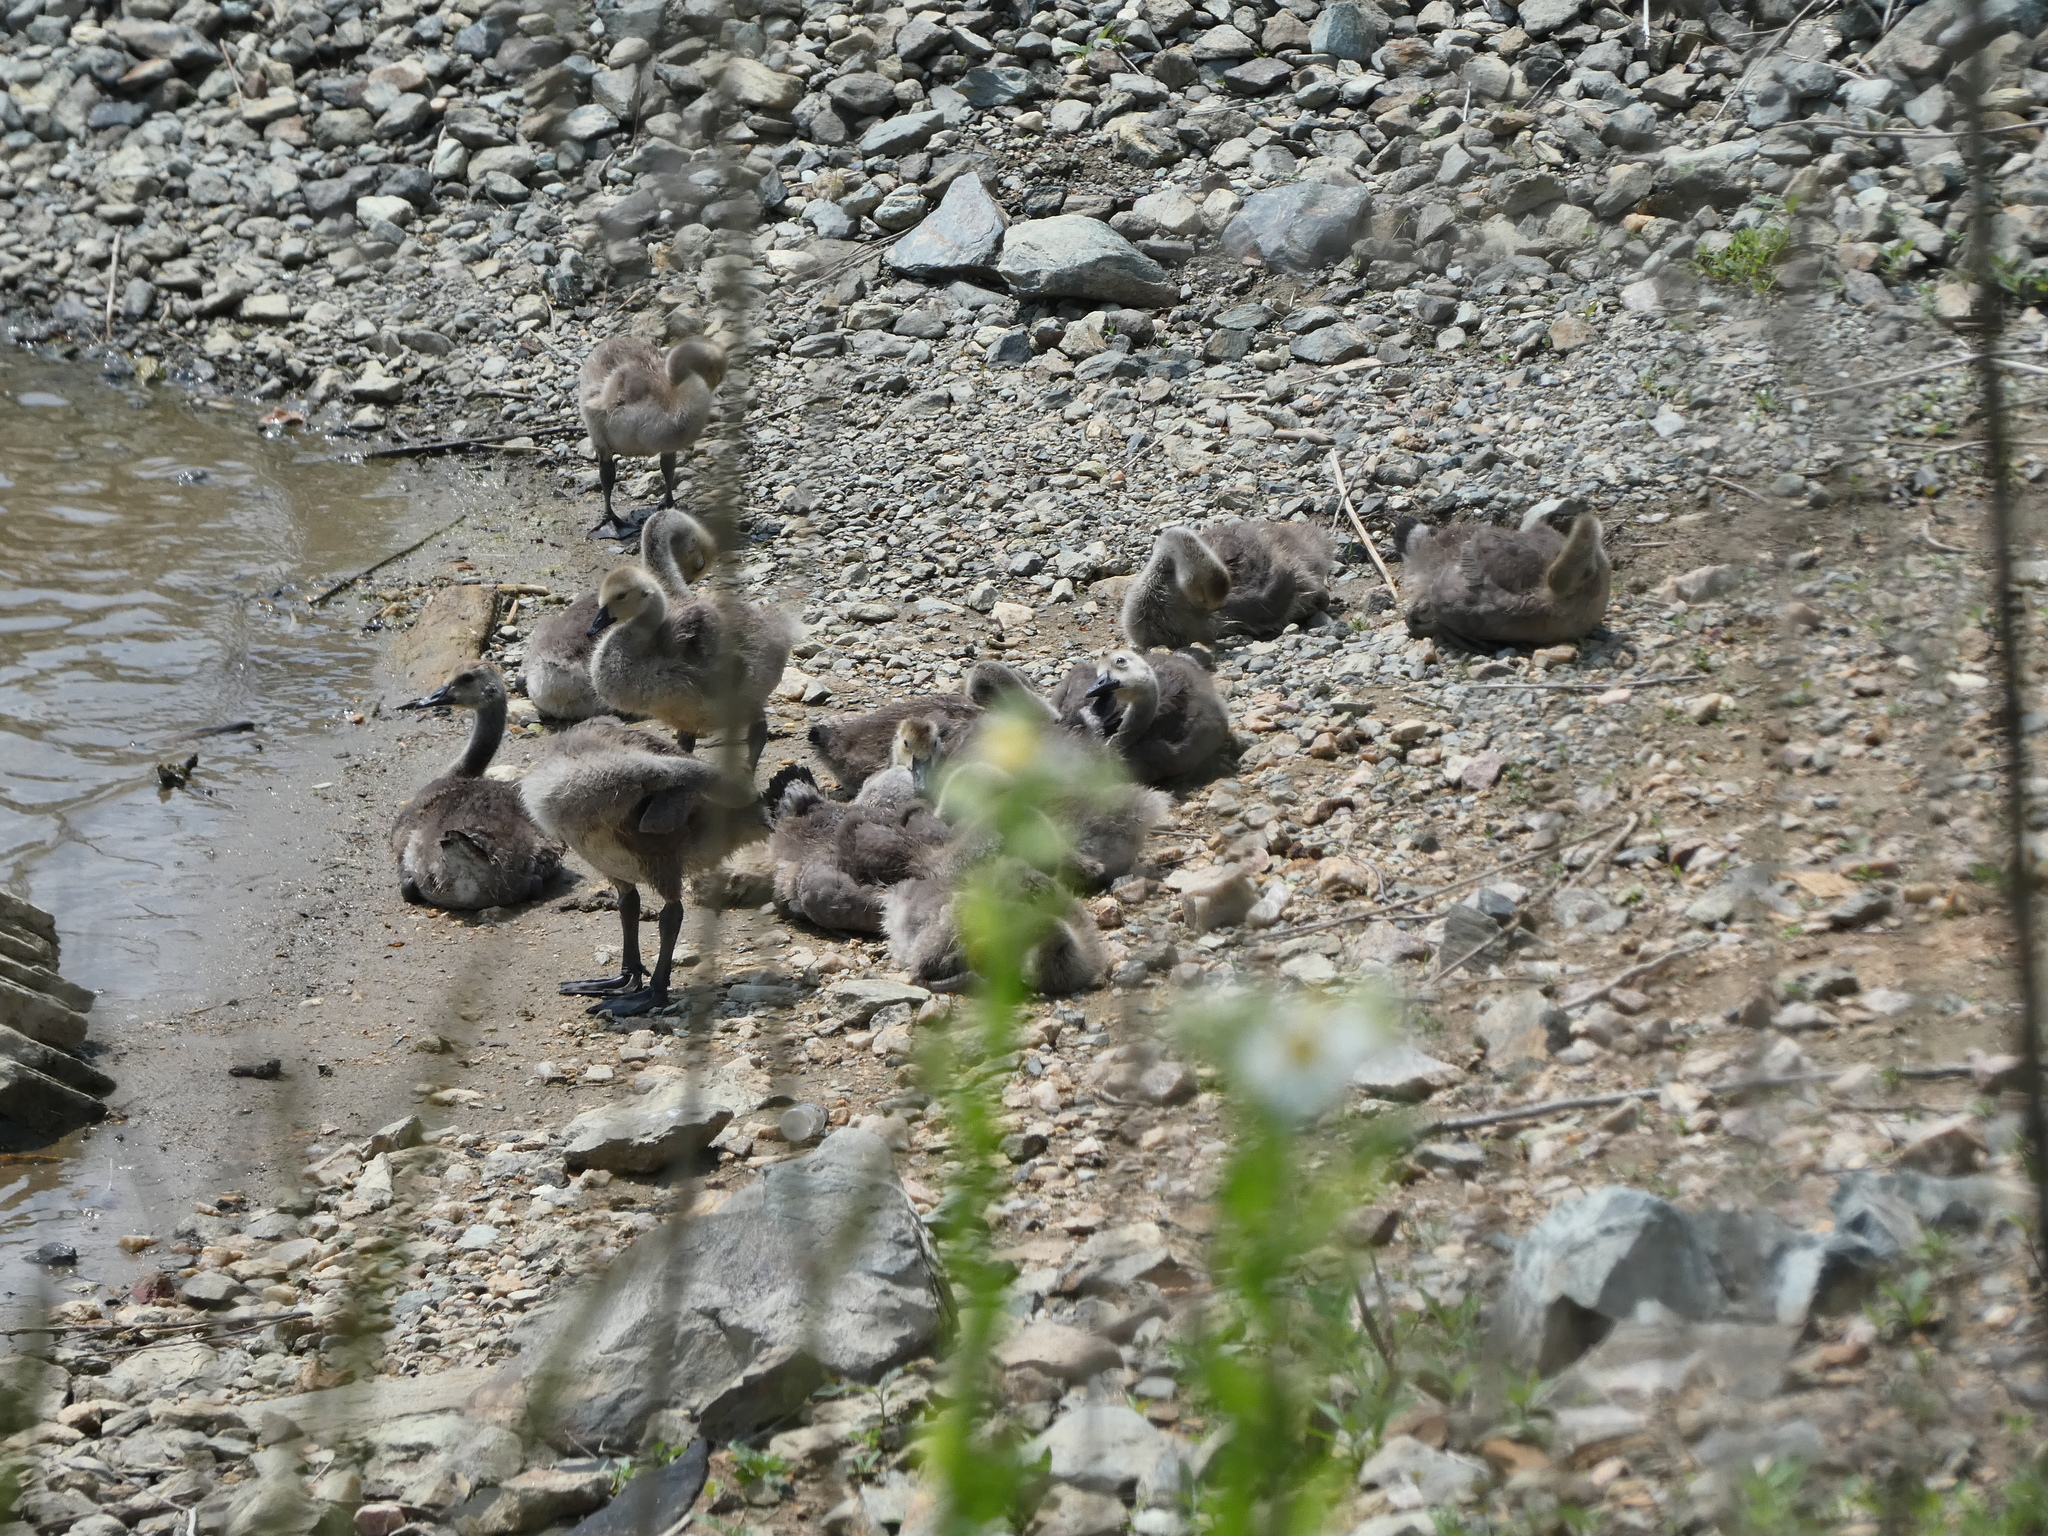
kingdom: Animalia
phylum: Chordata
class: Aves
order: Anseriformes
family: Anatidae
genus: Branta
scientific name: Branta canadensis
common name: Canada goose
